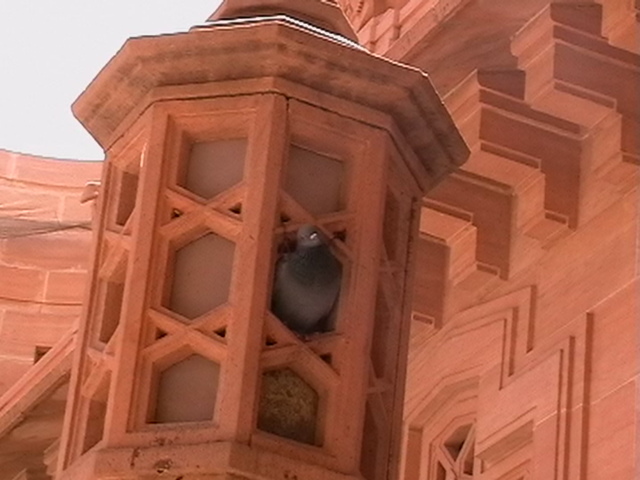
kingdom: Animalia
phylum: Chordata
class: Aves
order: Columbiformes
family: Columbidae
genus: Columba
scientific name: Columba livia
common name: Rock pigeon
